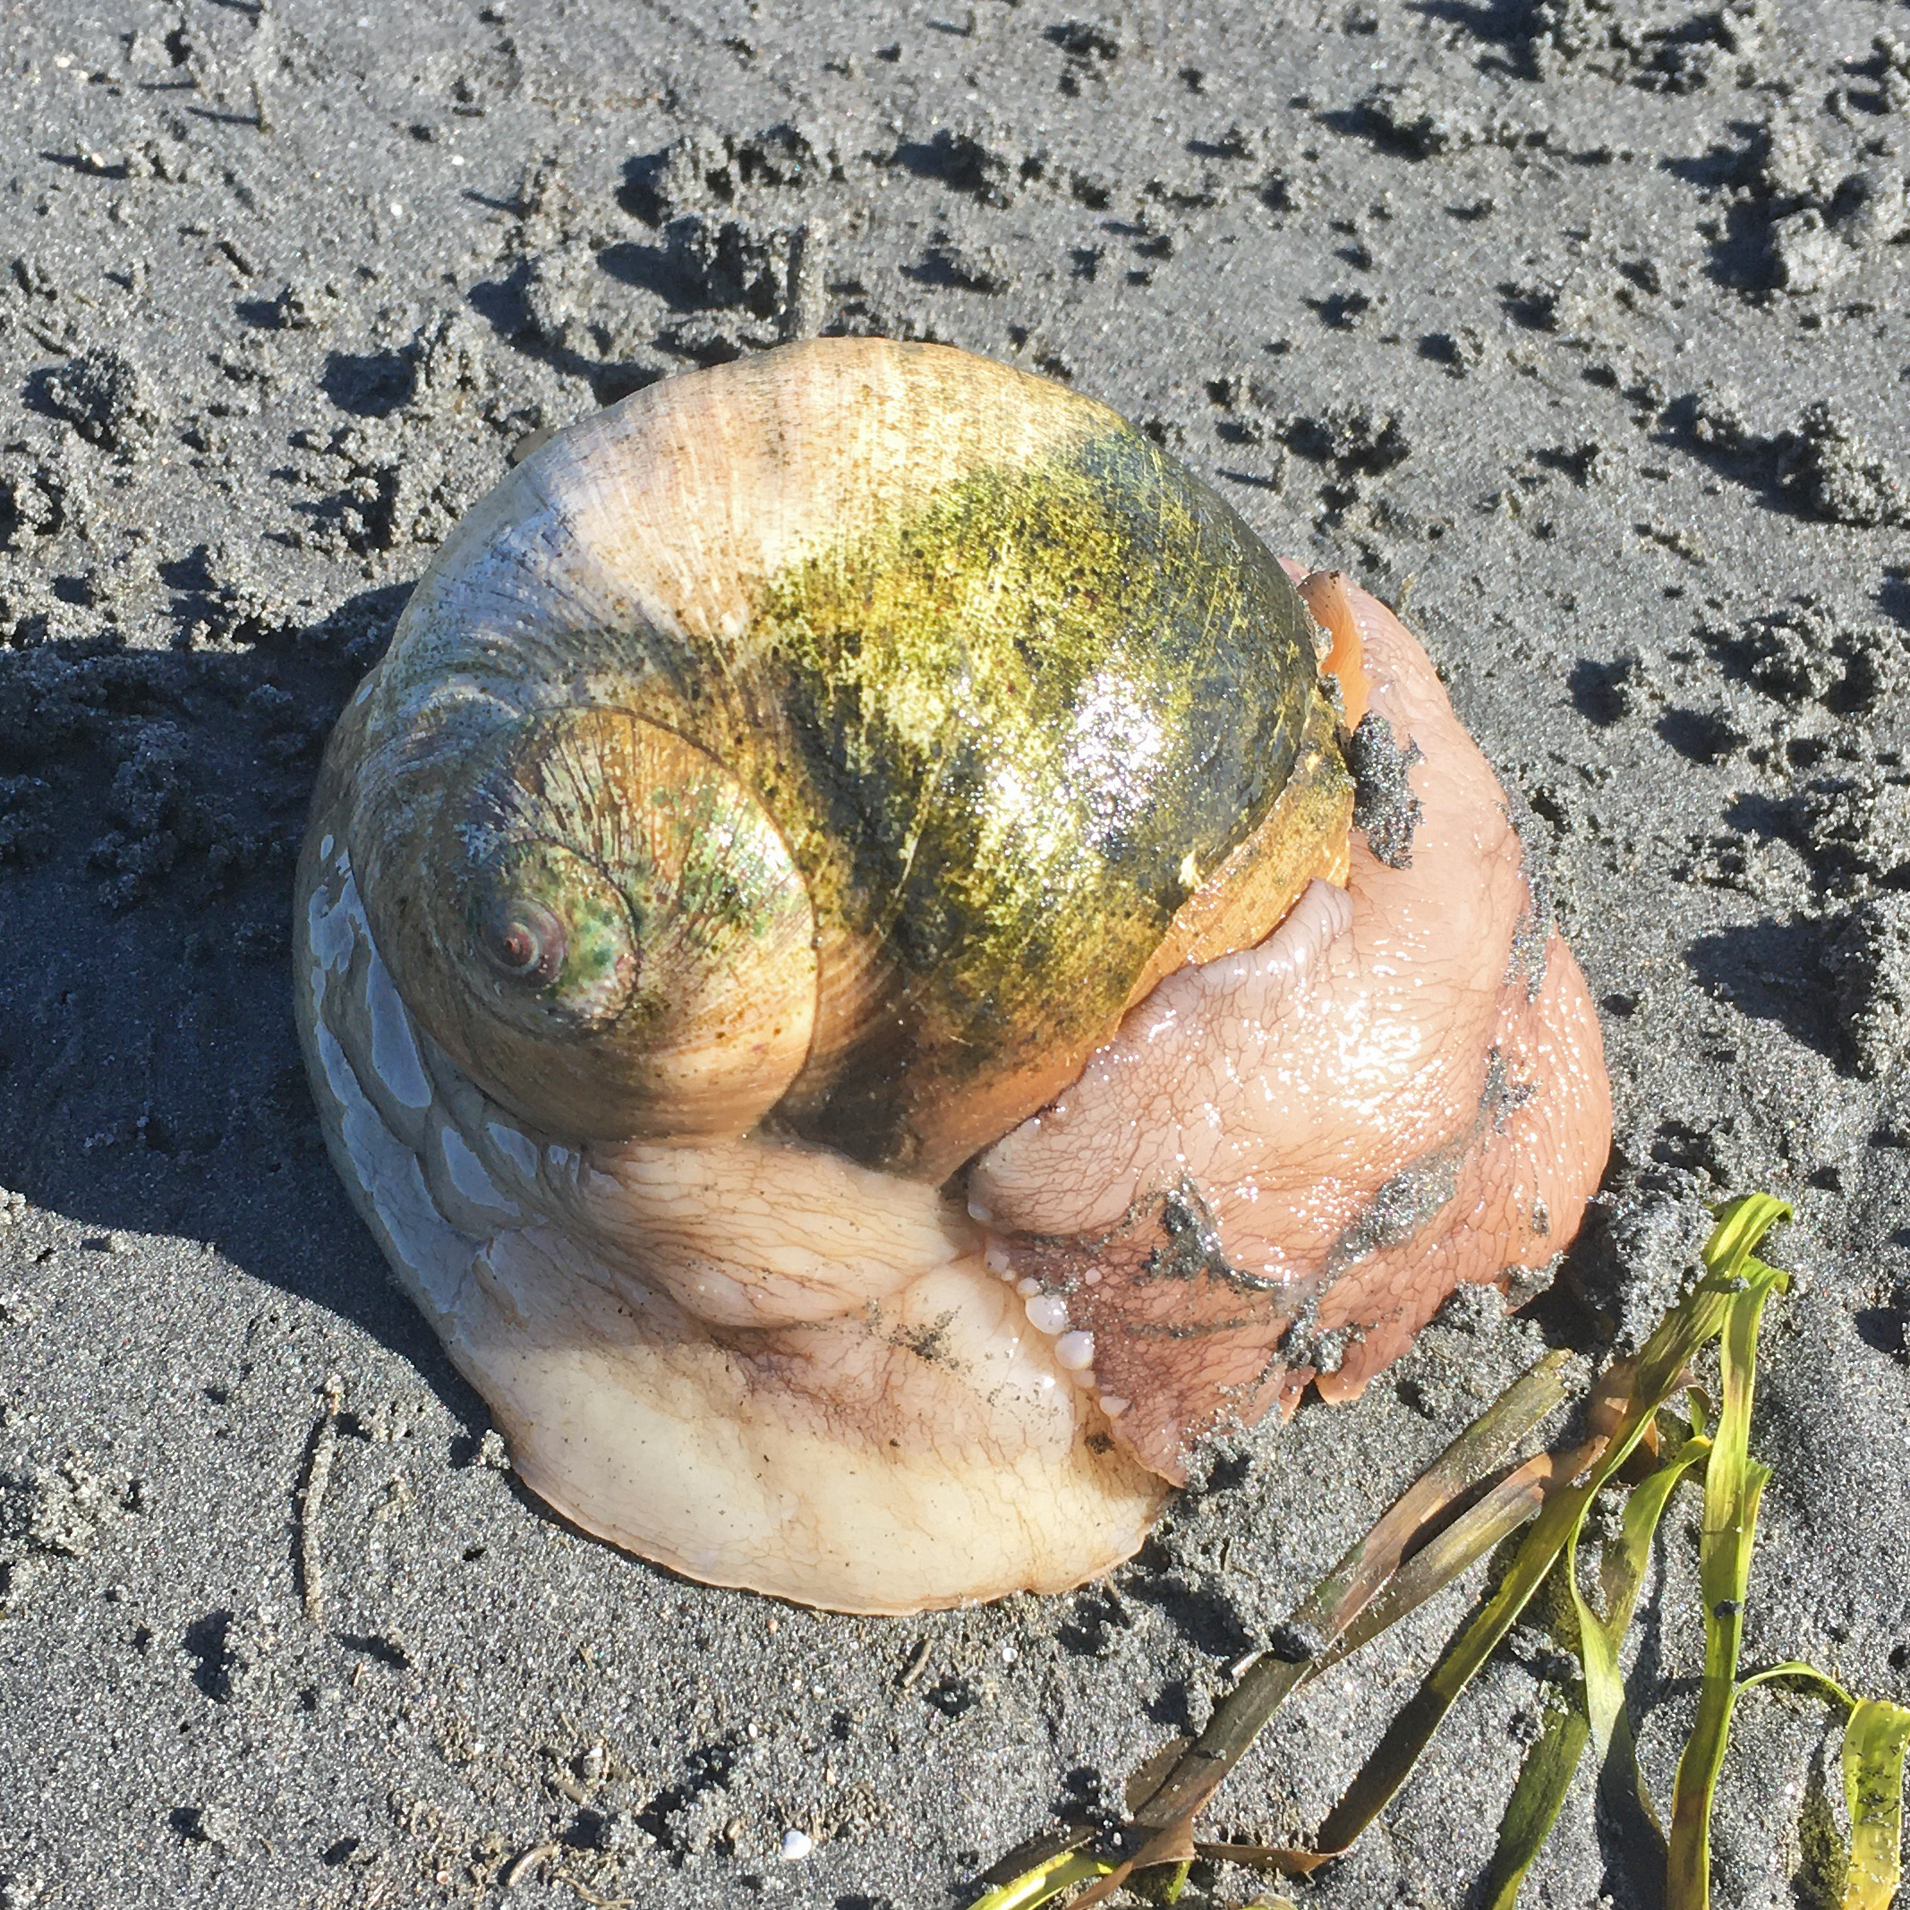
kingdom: Animalia
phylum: Mollusca
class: Gastropoda
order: Littorinimorpha
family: Naticidae
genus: Neverita
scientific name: Neverita lewisii
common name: Lewis' moonsnail
